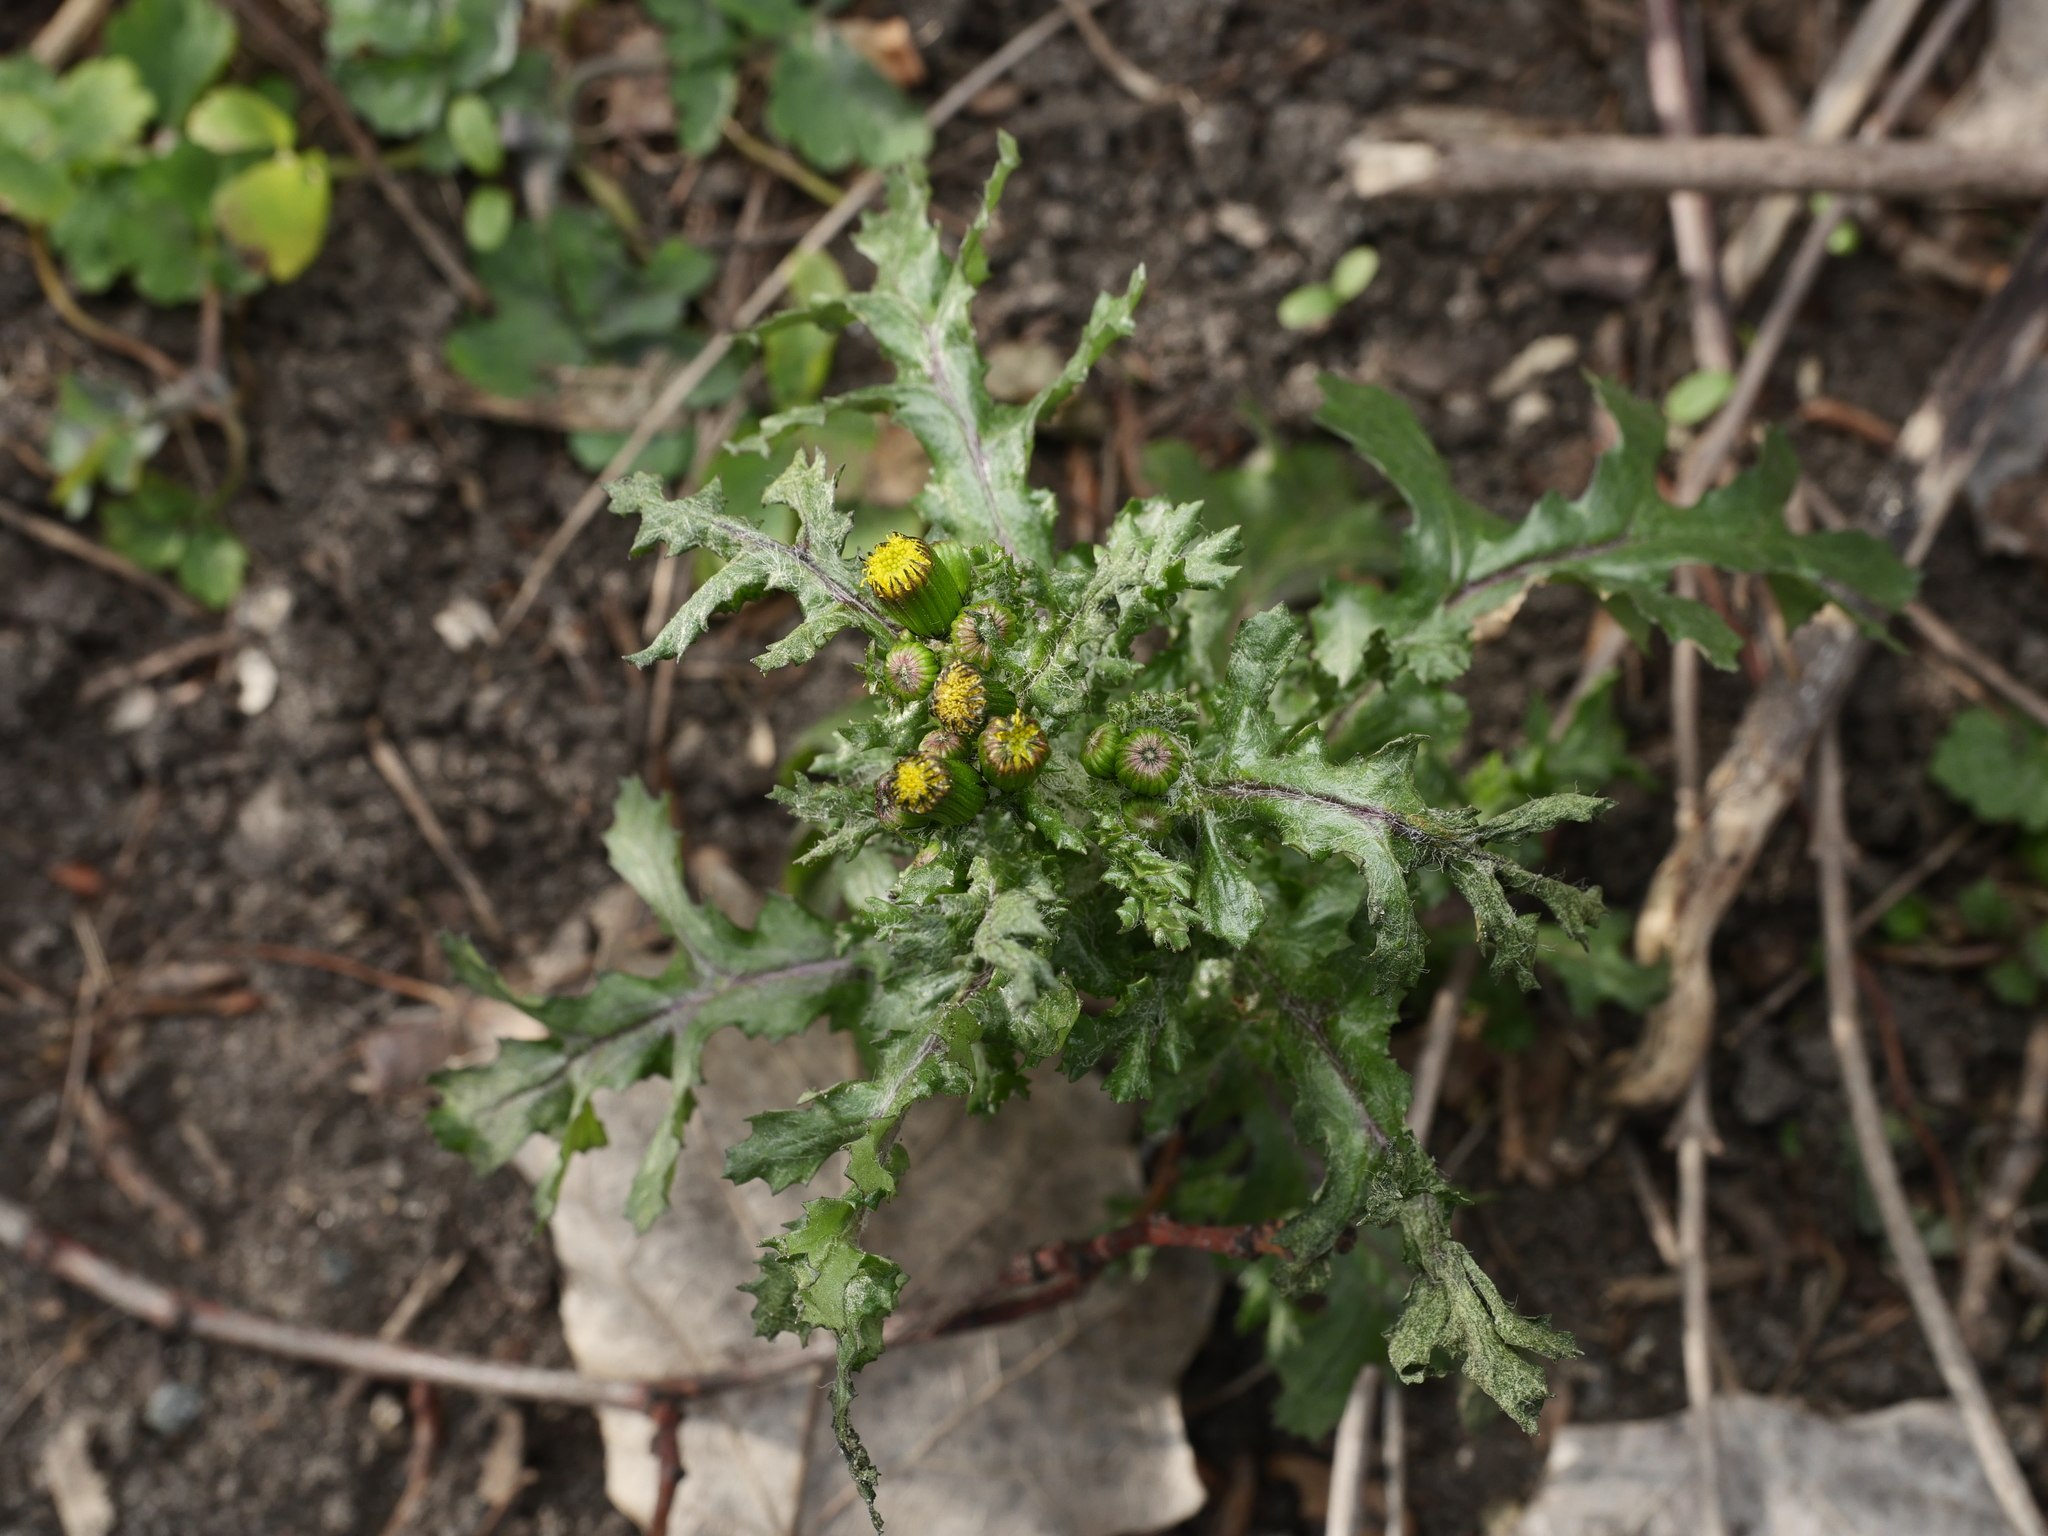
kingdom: Plantae
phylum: Tracheophyta
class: Magnoliopsida
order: Asterales
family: Asteraceae
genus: Senecio
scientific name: Senecio vulgaris
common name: Old-man-in-the-spring
